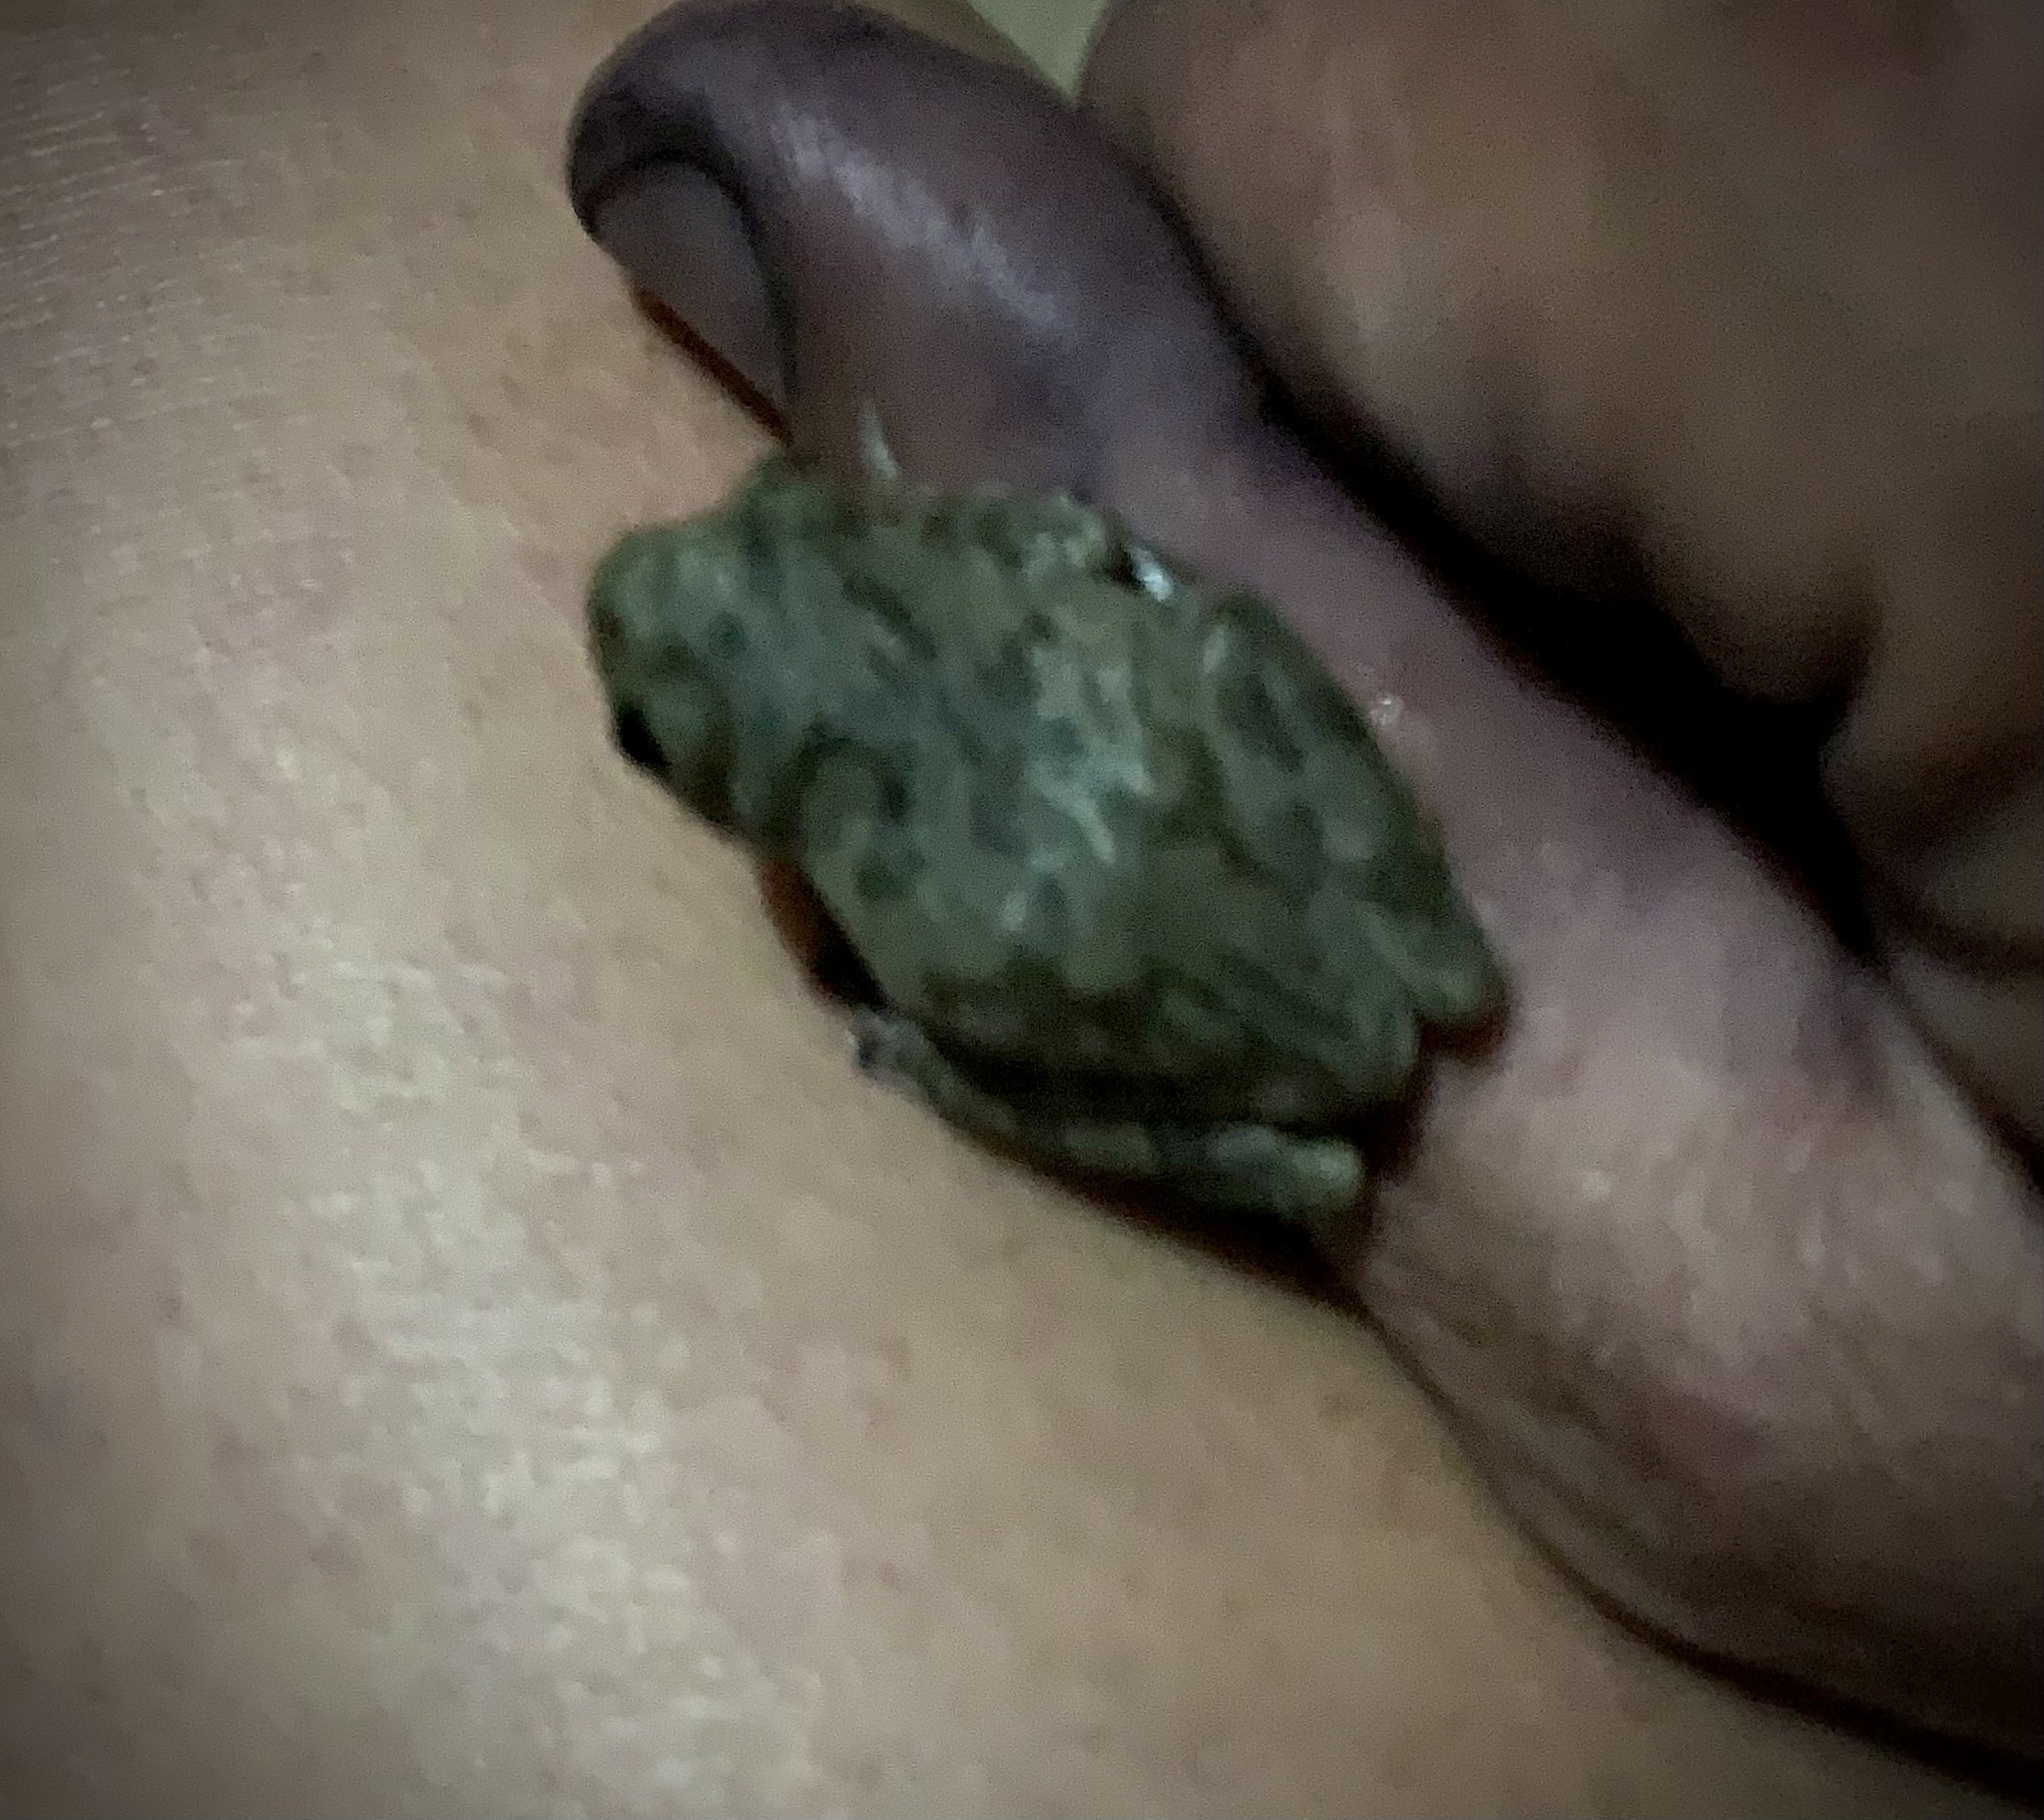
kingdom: Animalia
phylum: Chordata
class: Amphibia
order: Anura
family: Hylidae
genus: Hyla
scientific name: Hyla
